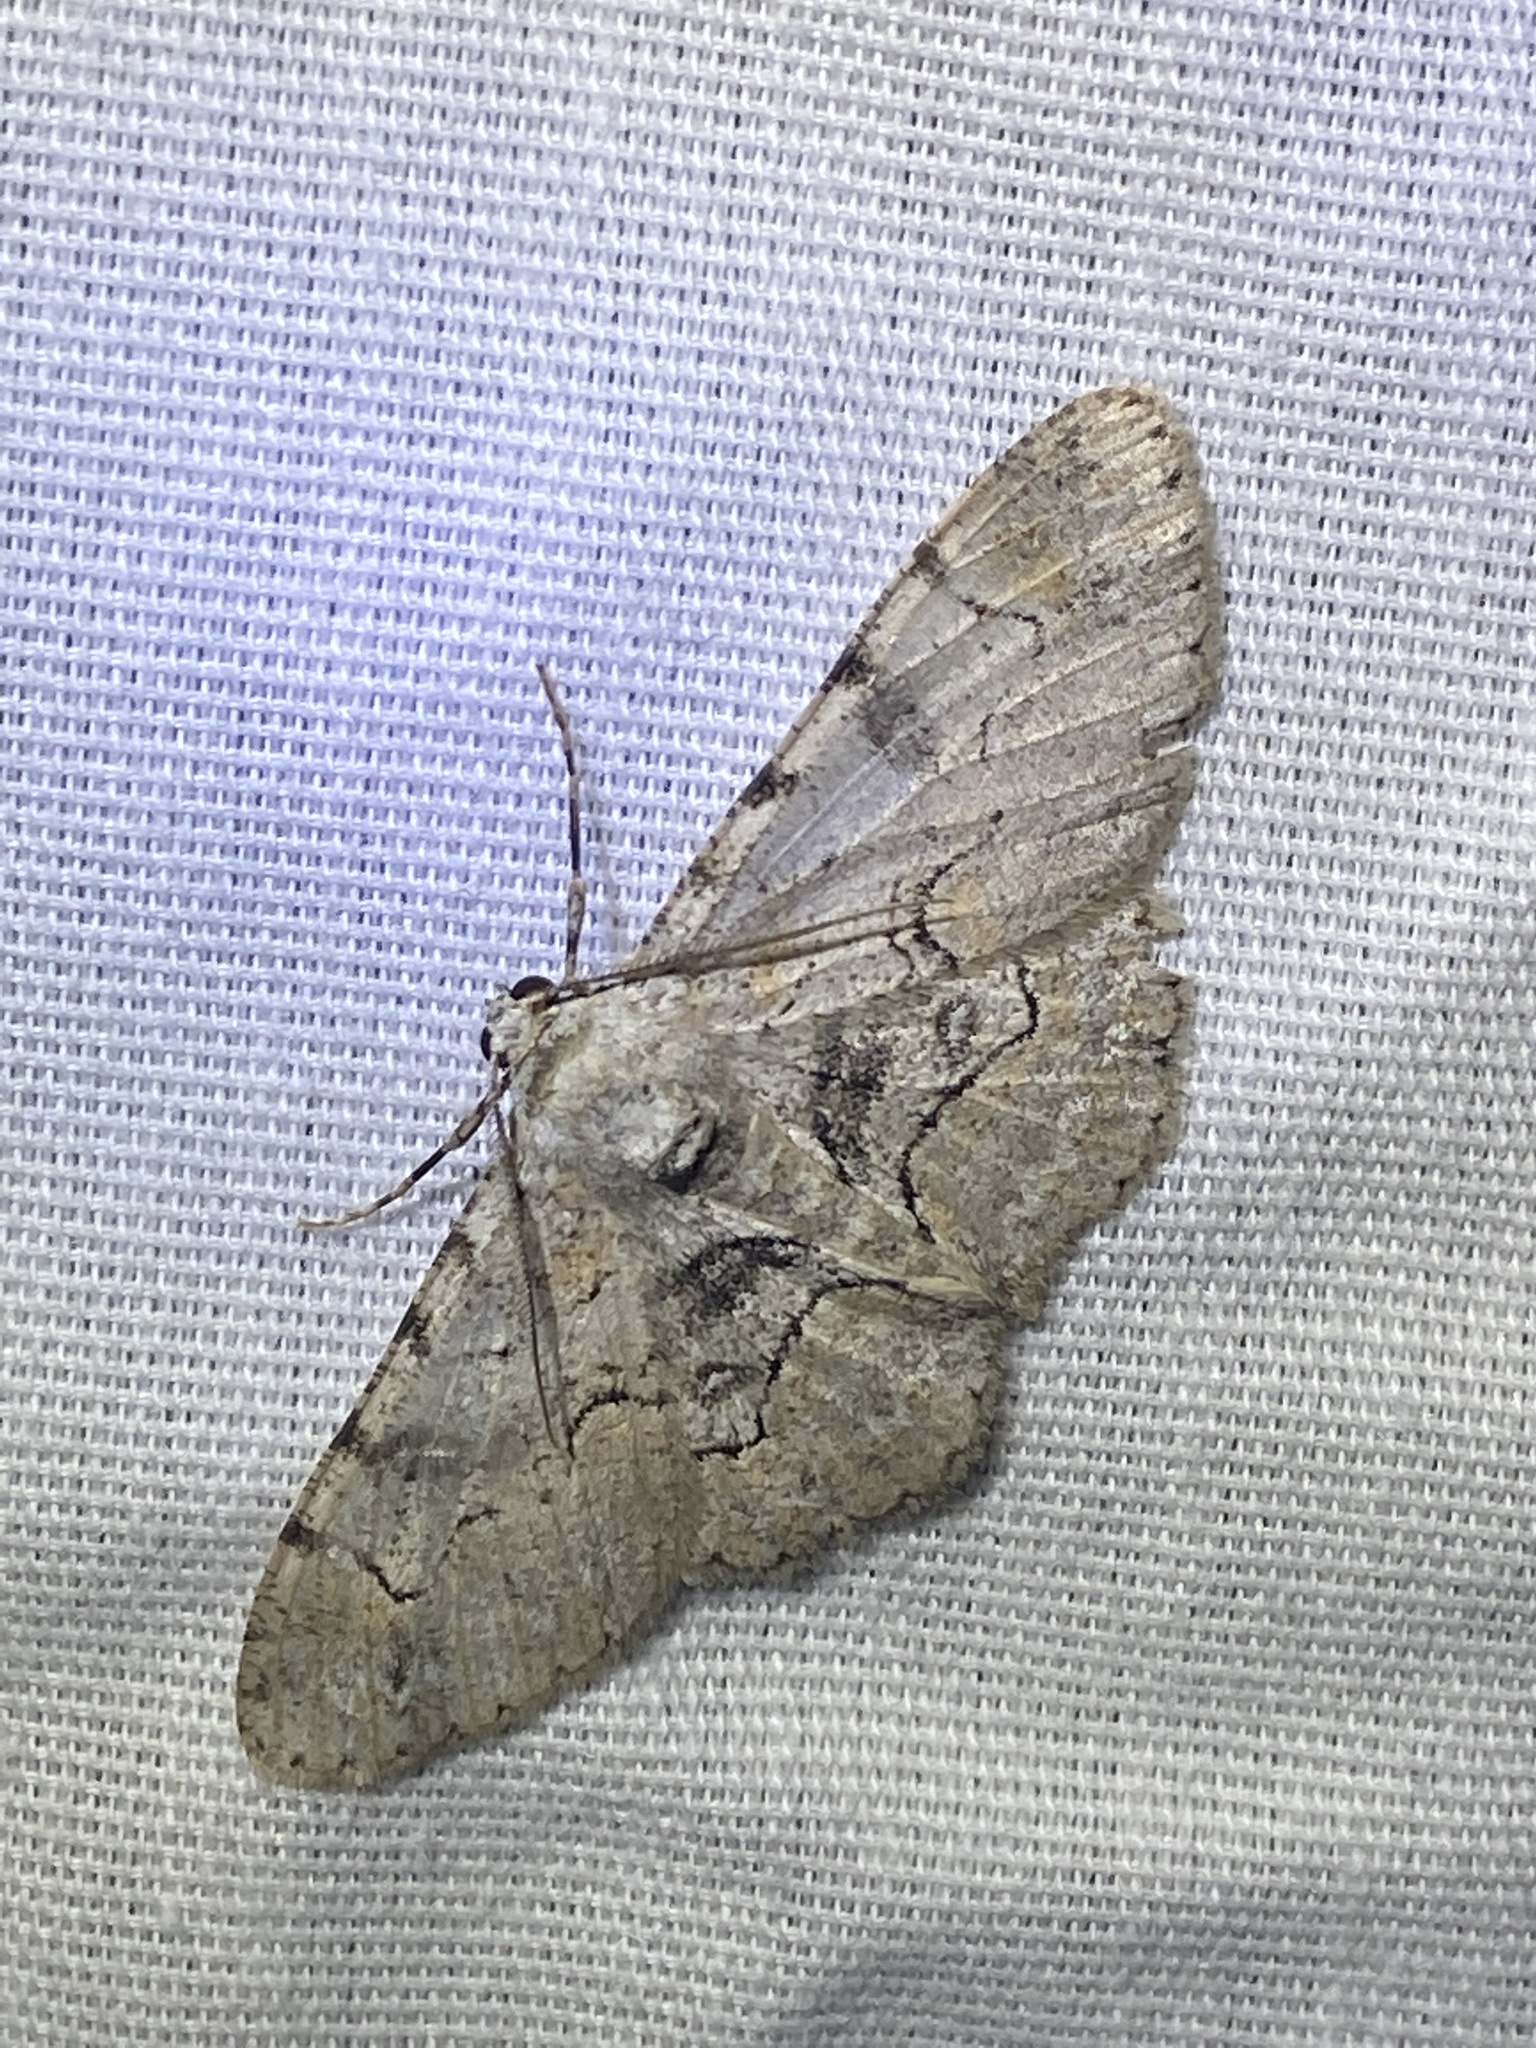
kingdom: Animalia
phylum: Arthropoda
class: Insecta
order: Lepidoptera
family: Geometridae
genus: Iridopsis
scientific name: Iridopsis larvaria
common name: Bent-line gray
